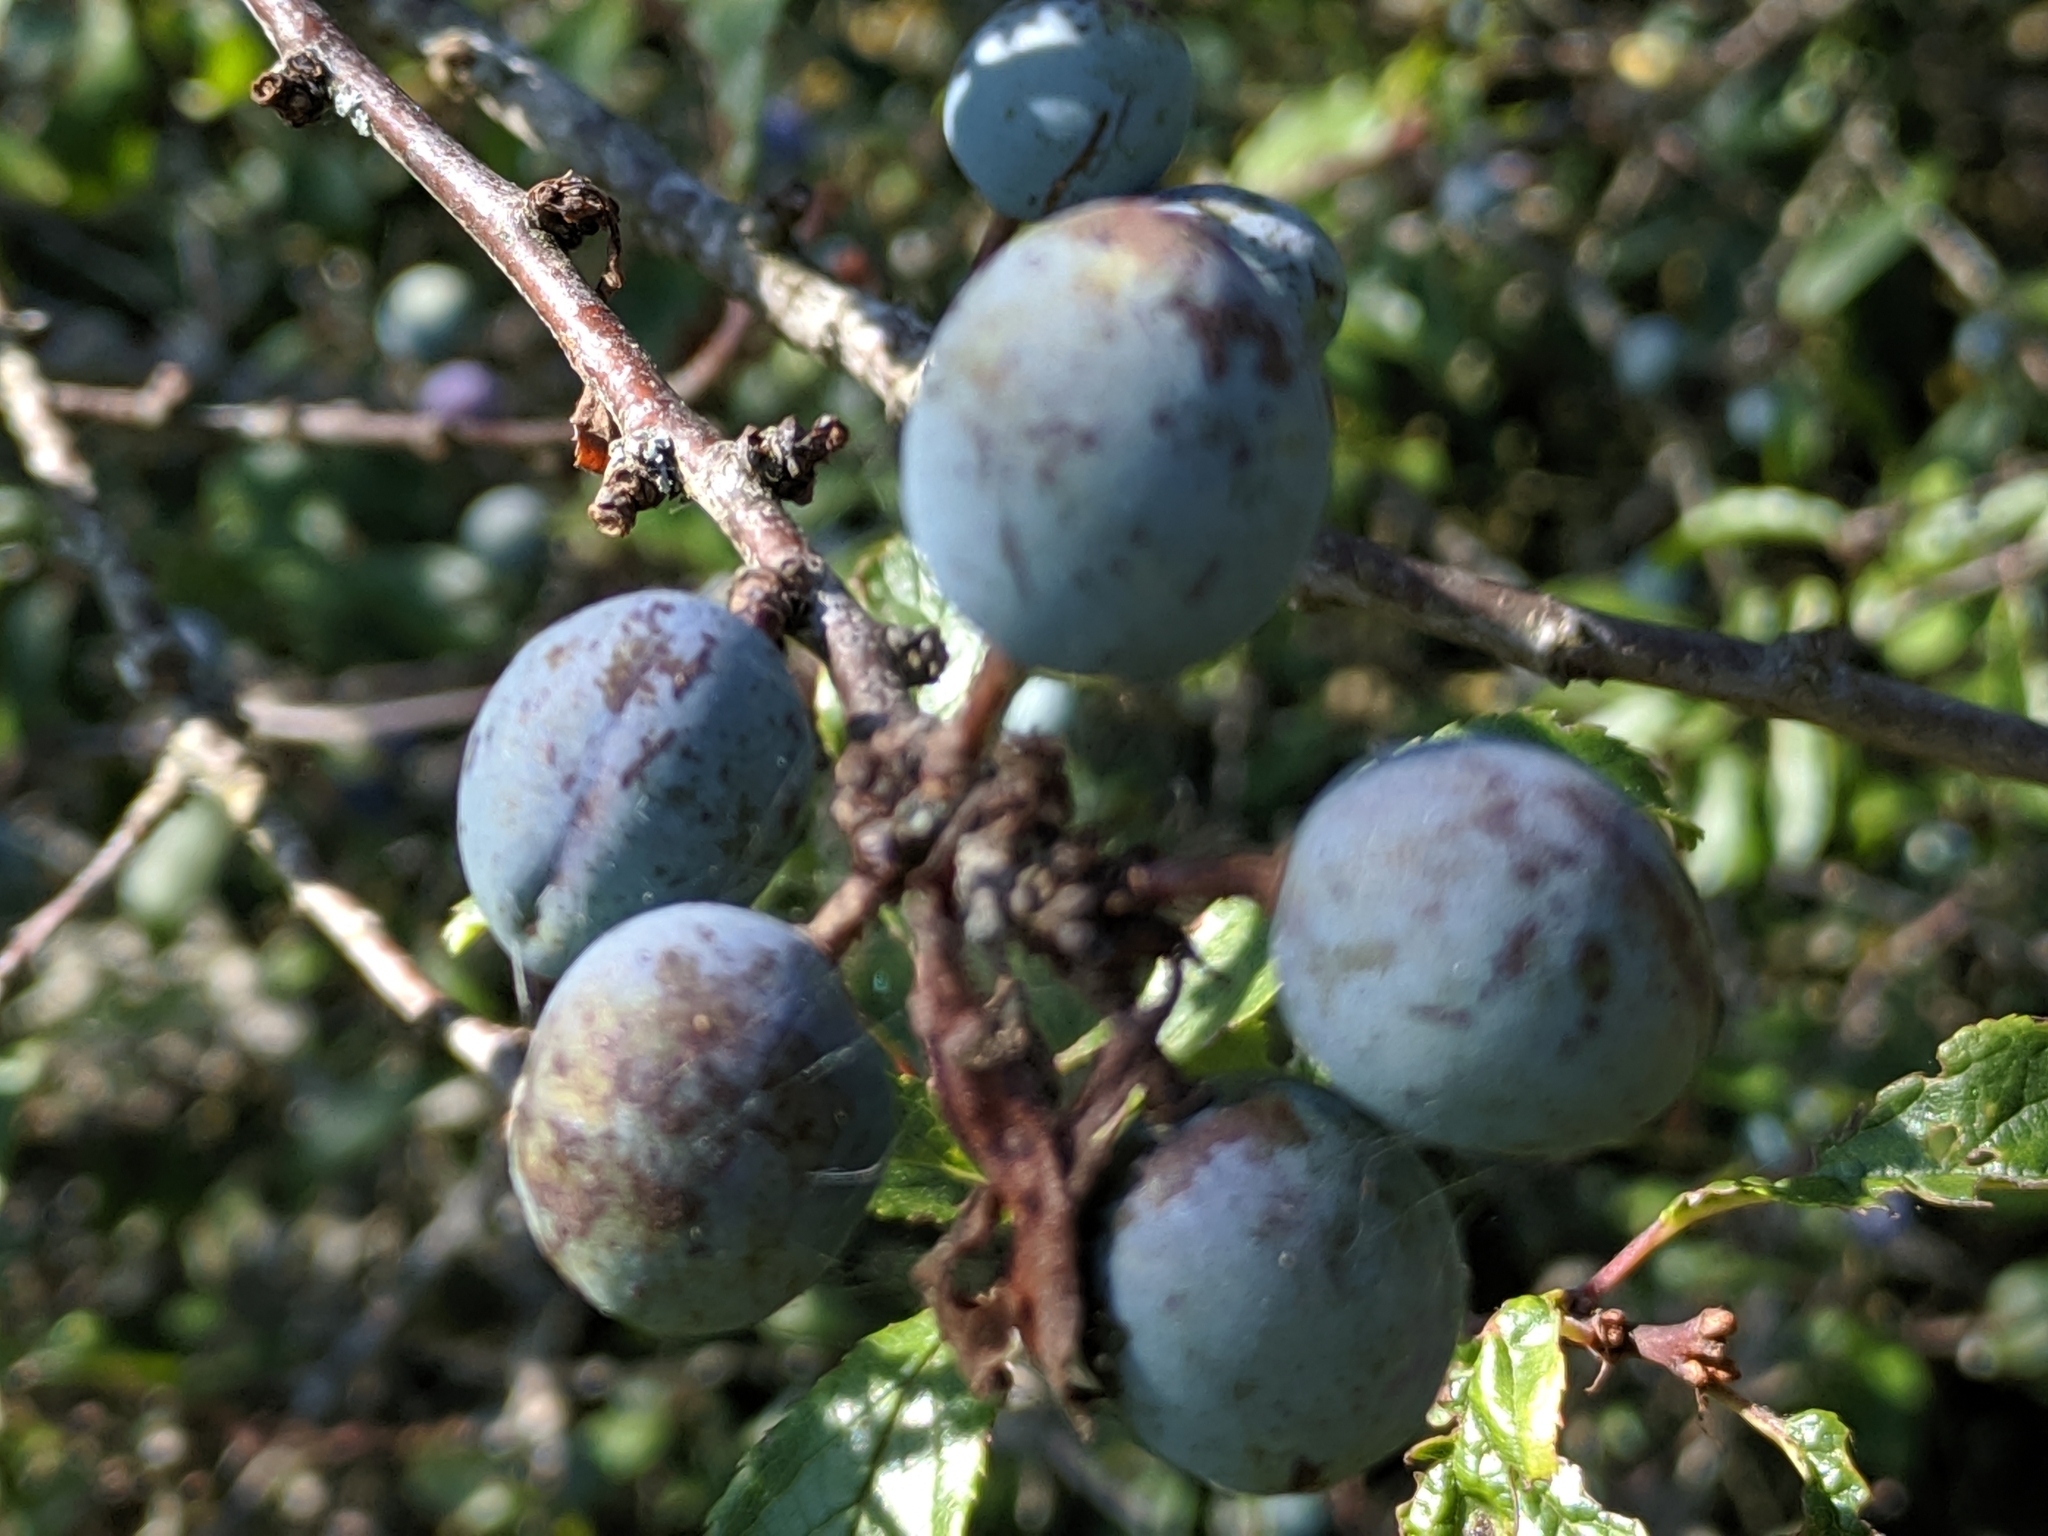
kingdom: Plantae
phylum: Tracheophyta
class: Magnoliopsida
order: Rosales
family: Rosaceae
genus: Prunus
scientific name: Prunus spinosa
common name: Blackthorn
